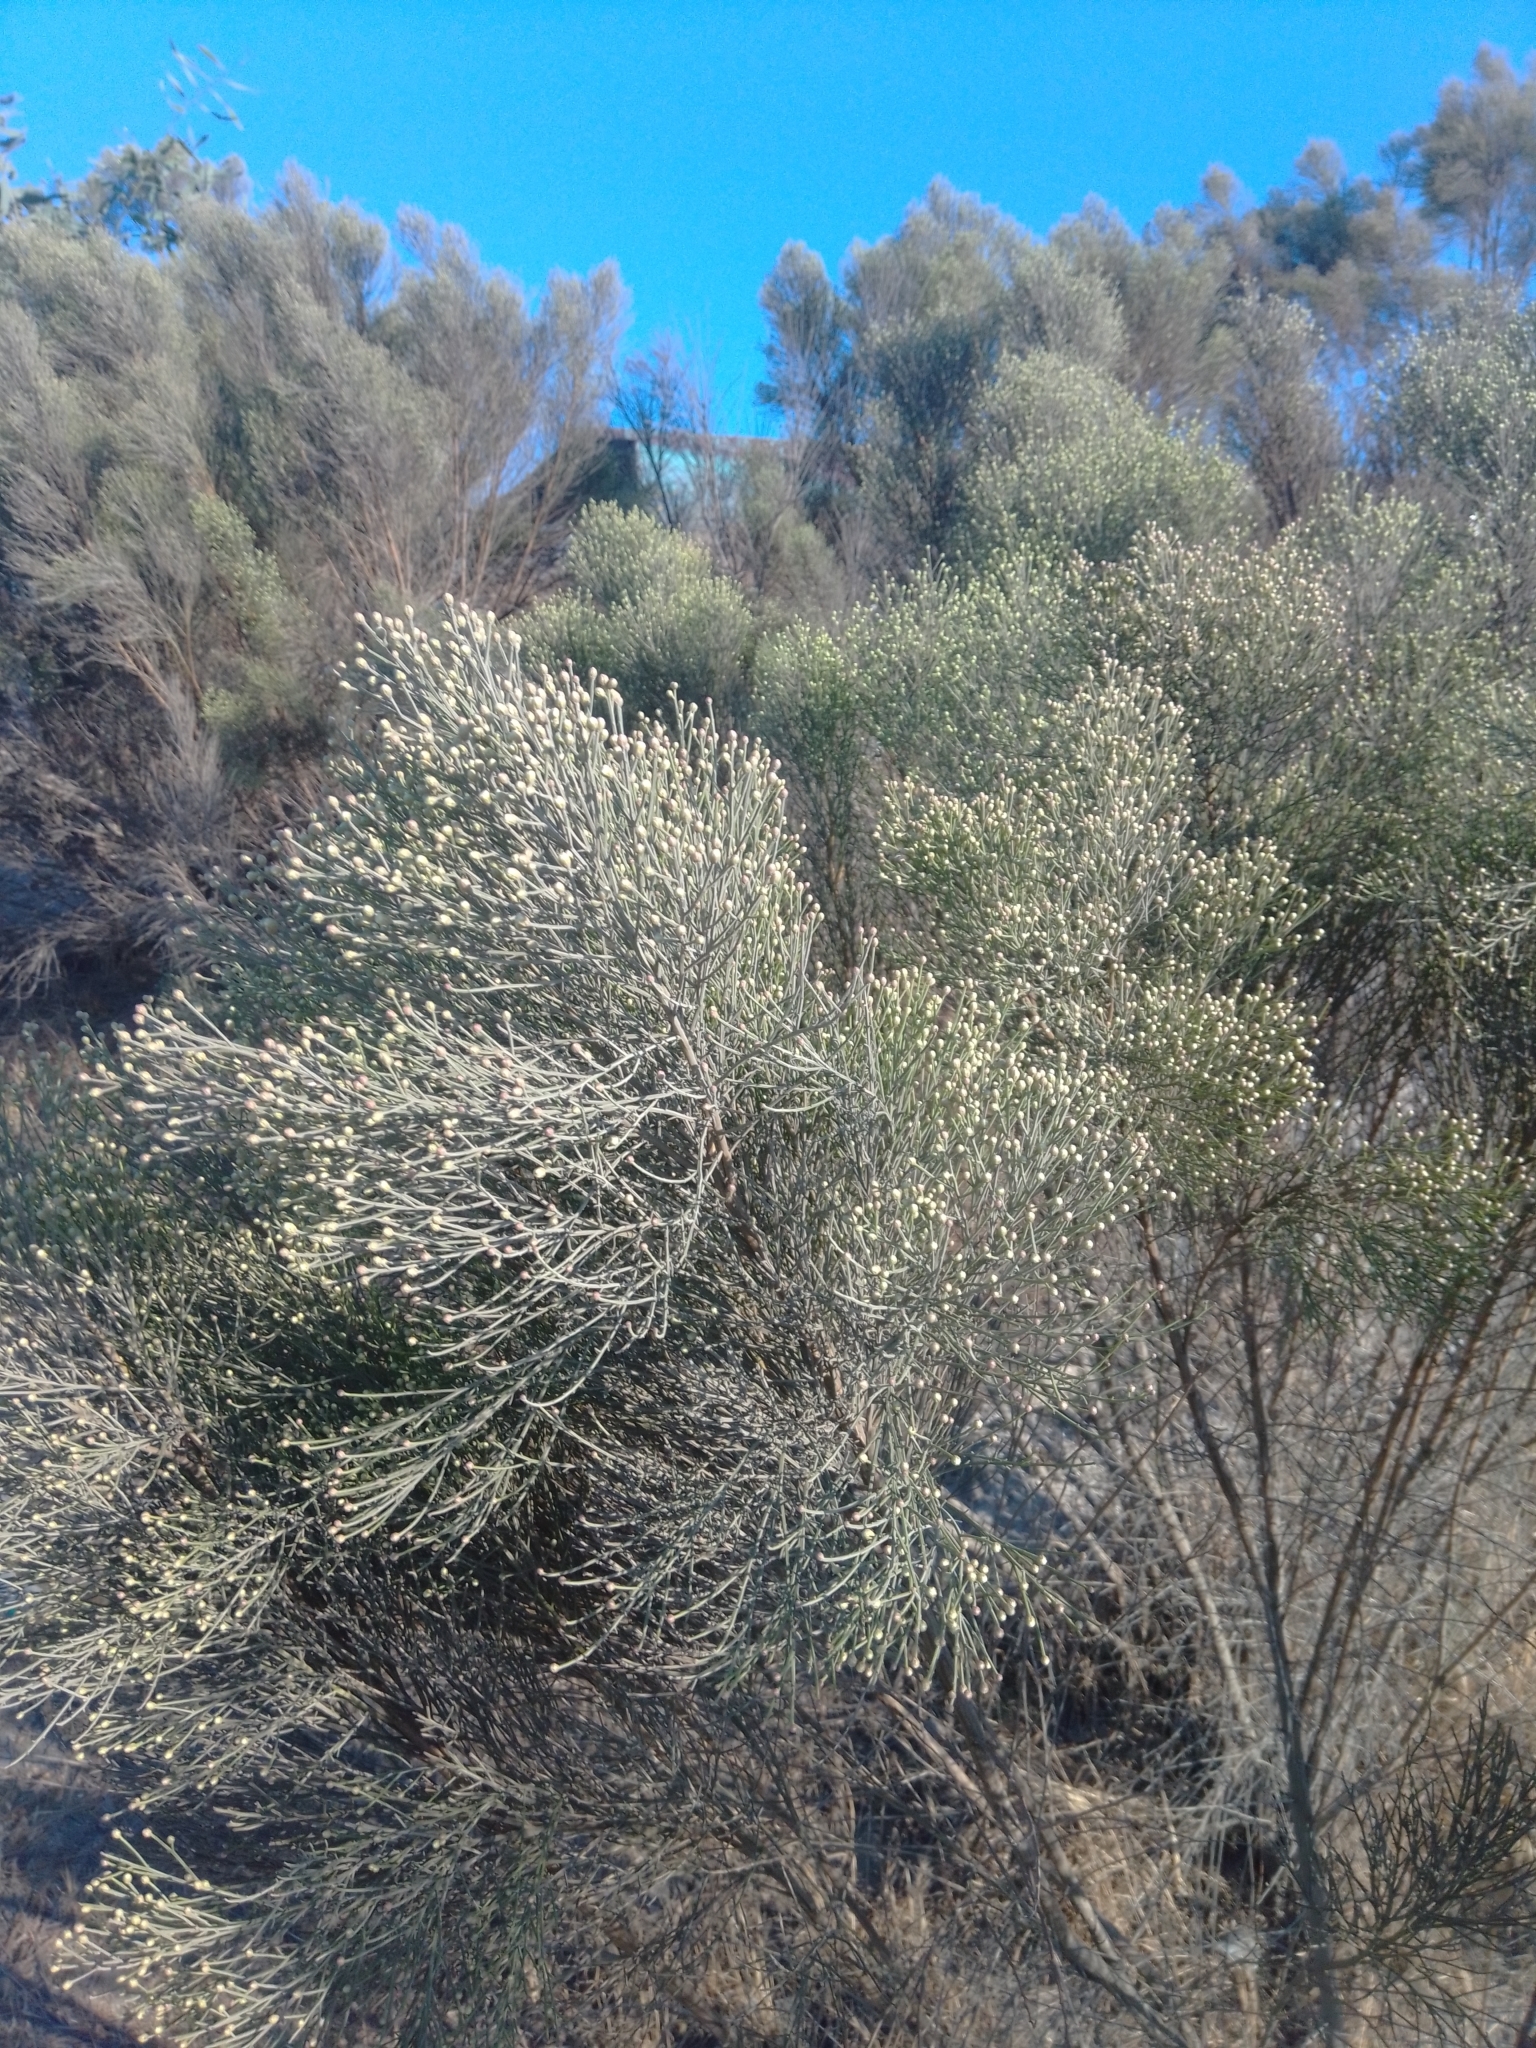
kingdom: Plantae
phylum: Tracheophyta
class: Magnoliopsida
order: Asterales
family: Asteraceae
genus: Baccharis
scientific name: Baccharis sarothroides
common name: Desert-broom
